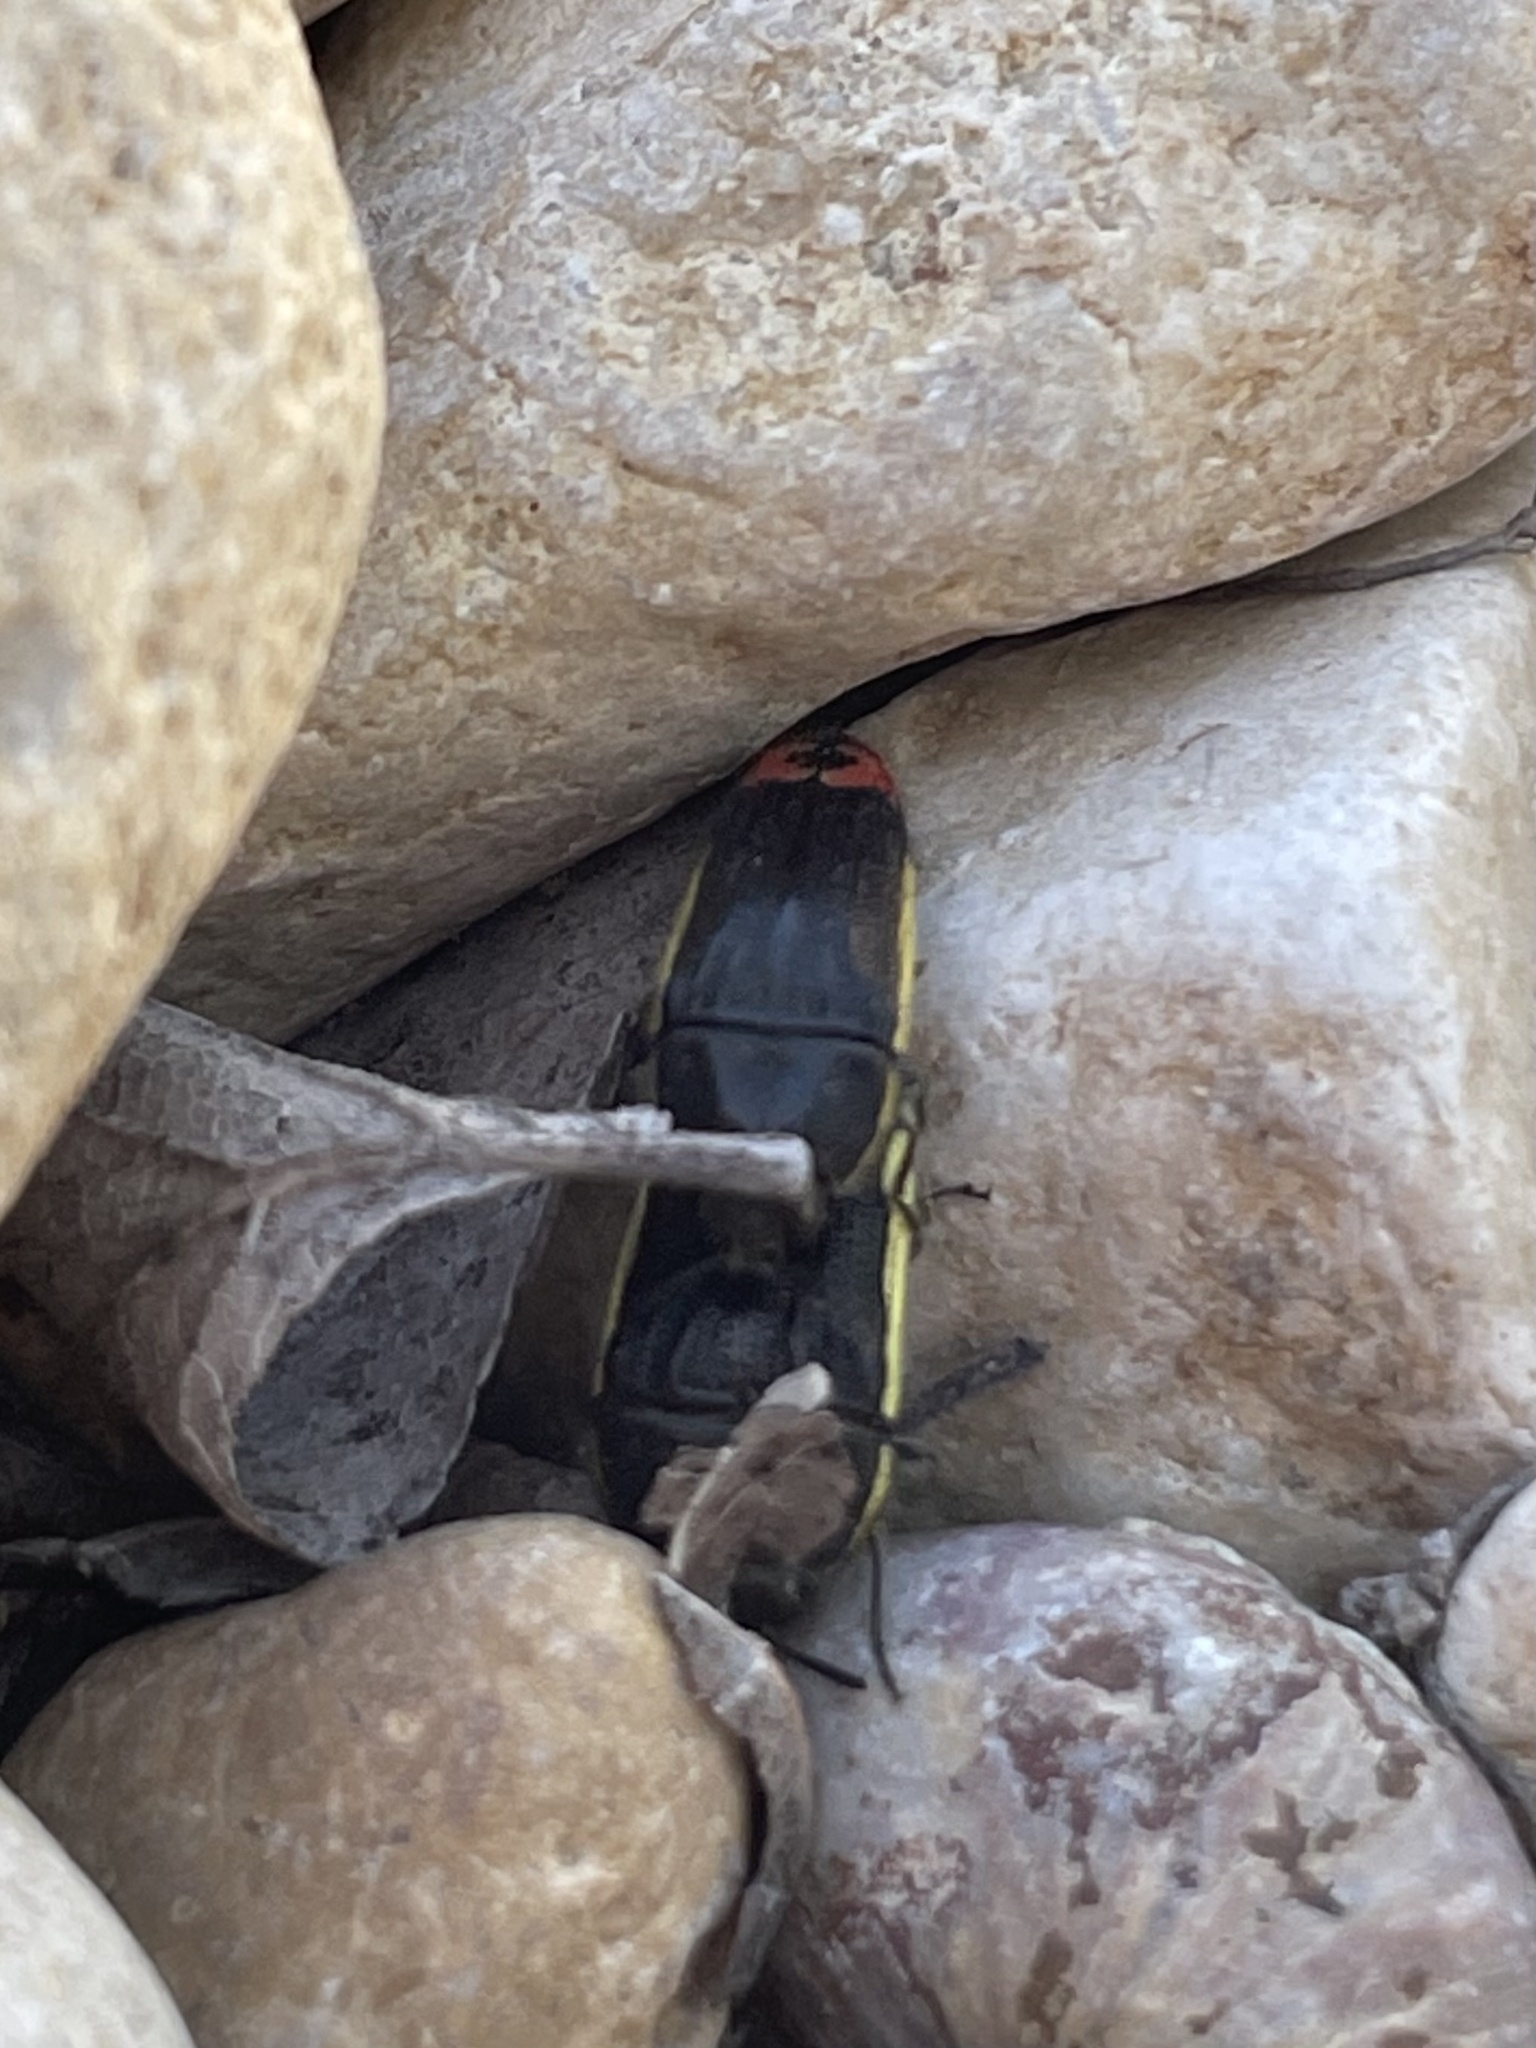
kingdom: Animalia
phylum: Arthropoda
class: Insecta
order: Coleoptera
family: Buprestidae
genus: Acmaeodera
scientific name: Acmaeodera flavomarginata
